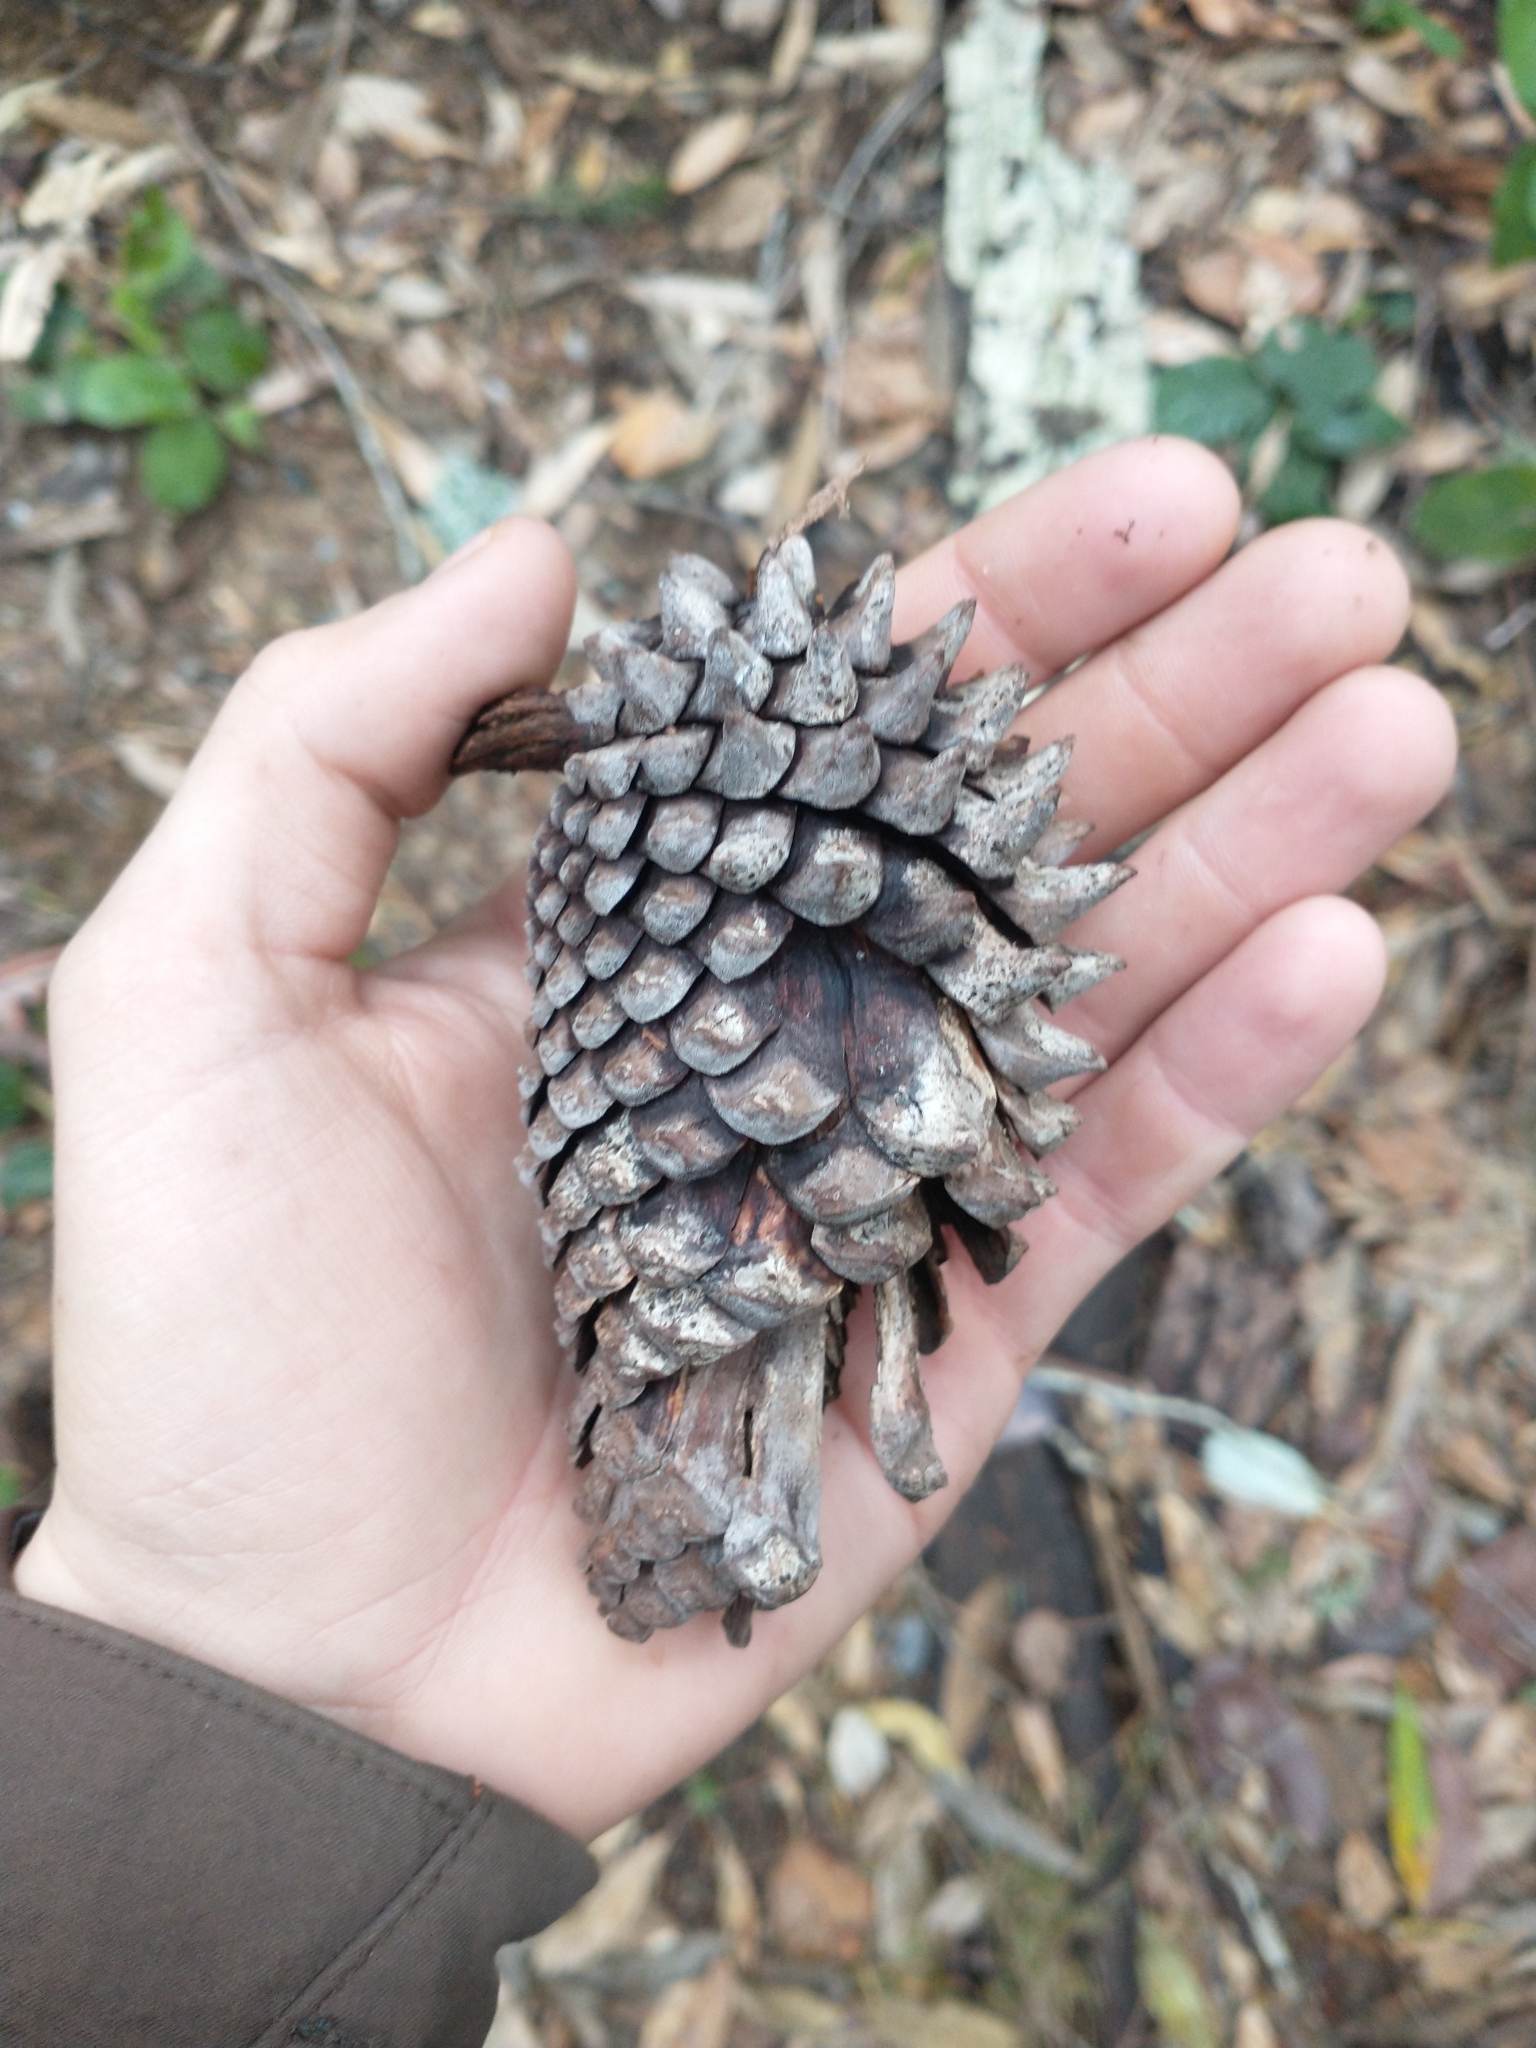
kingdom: Plantae
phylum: Tracheophyta
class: Pinopsida
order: Pinales
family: Pinaceae
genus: Pinus
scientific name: Pinus attenuata
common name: Knobcone pine
